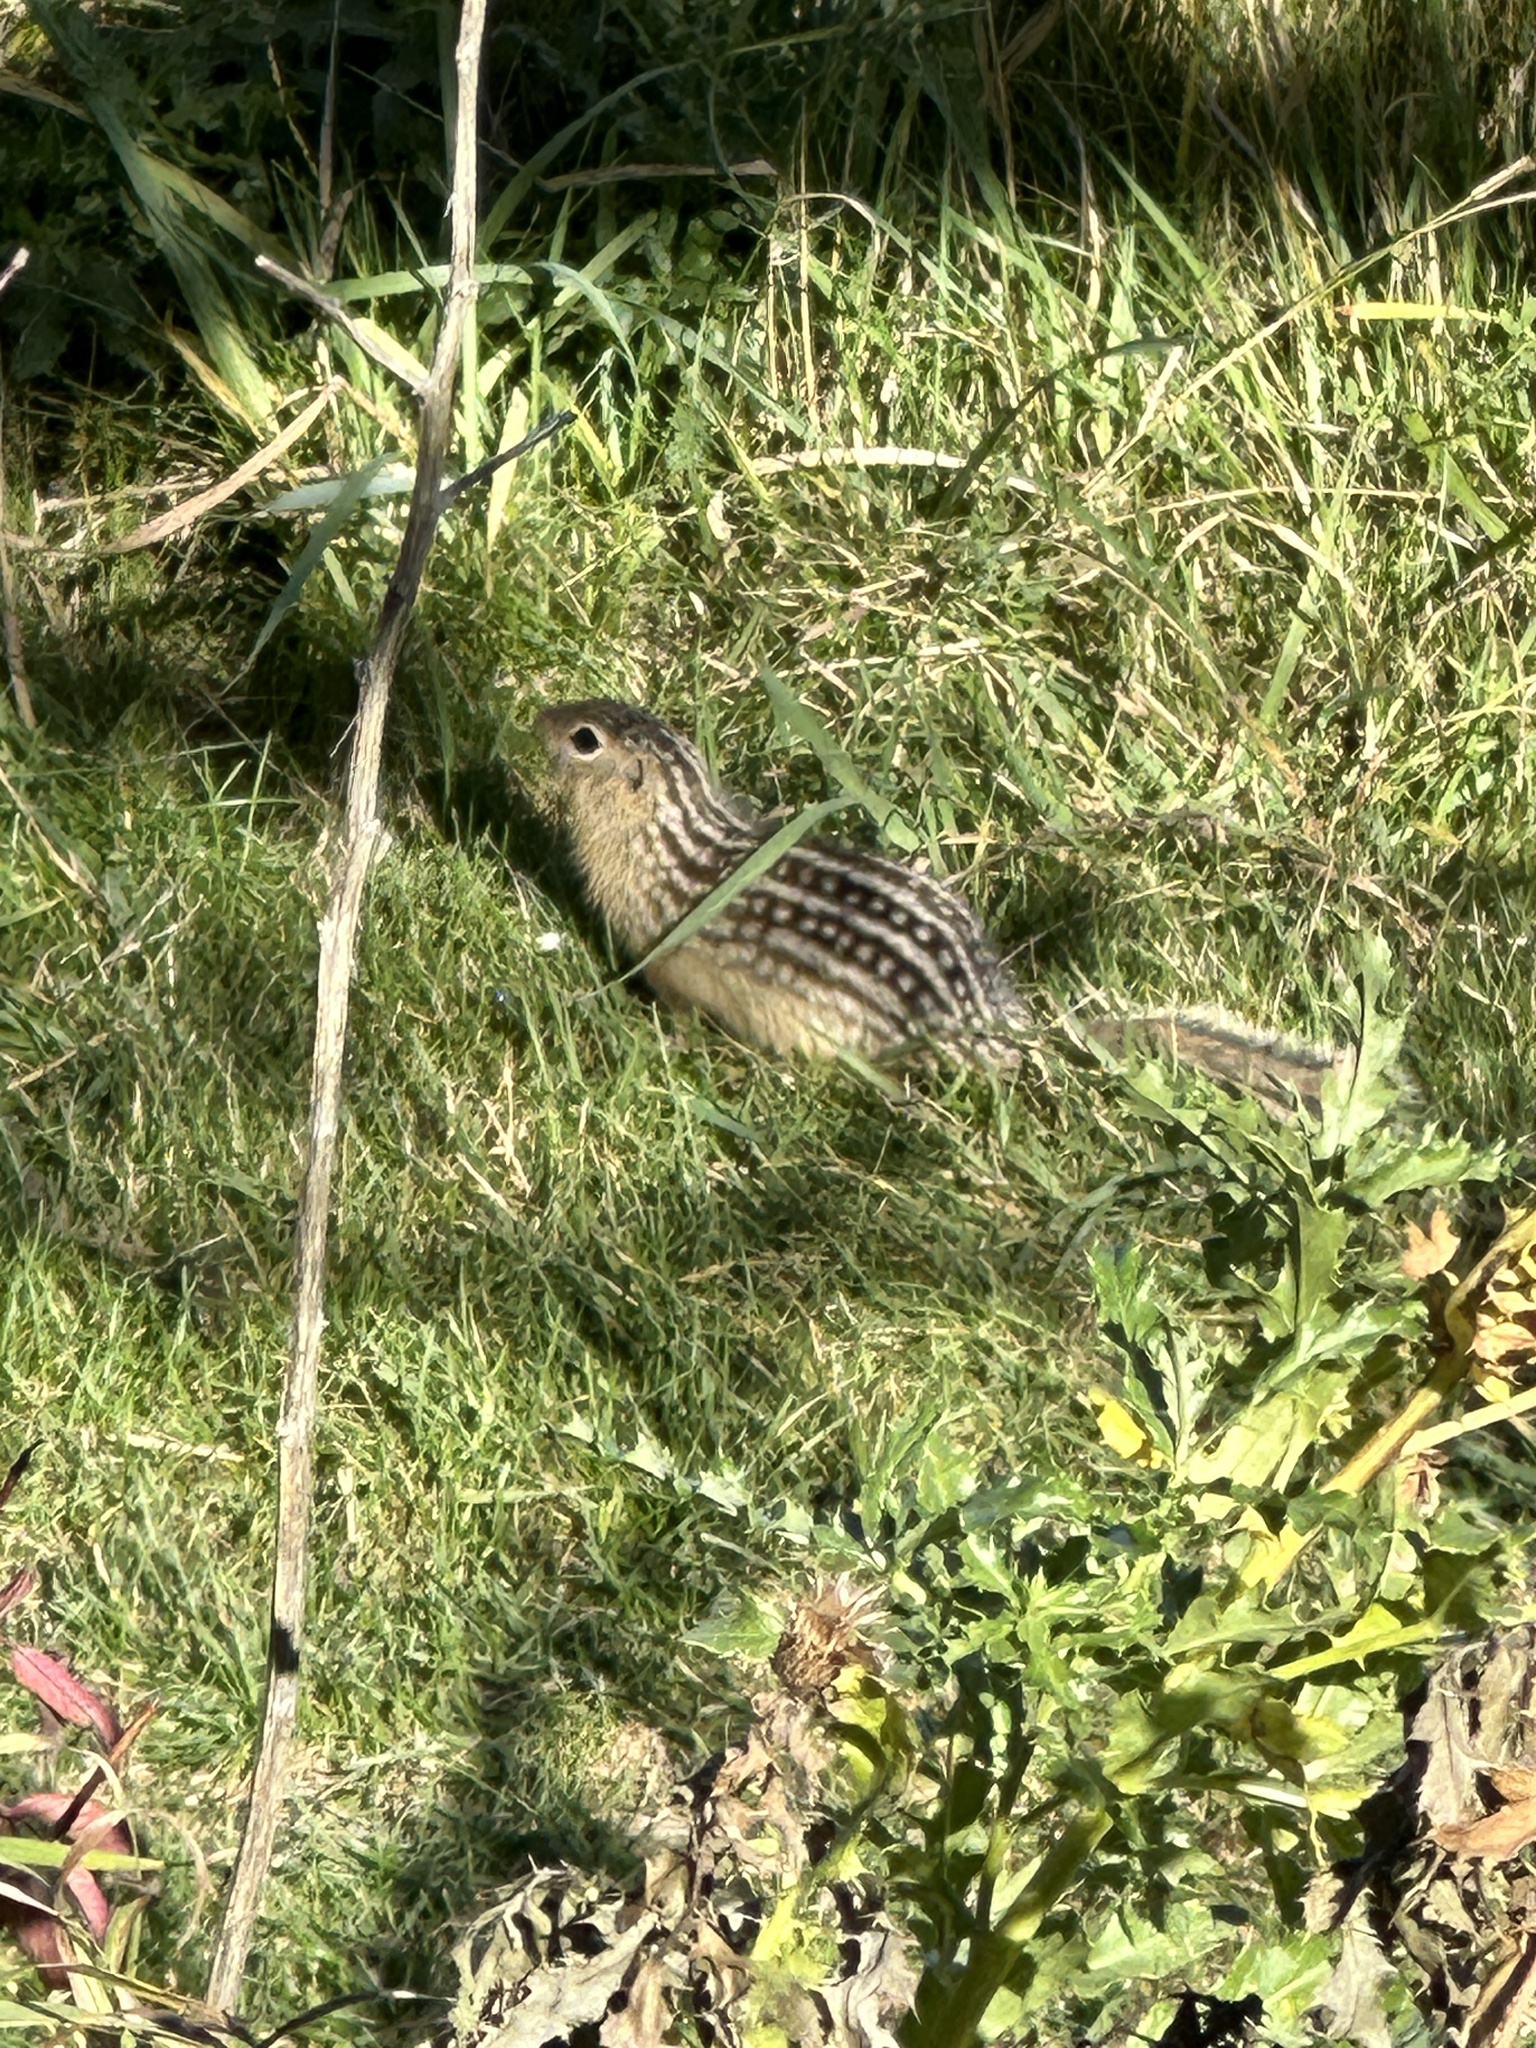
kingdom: Animalia
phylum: Chordata
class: Mammalia
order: Rodentia
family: Sciuridae
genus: Ictidomys
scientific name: Ictidomys tridecemlineatus
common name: Thirteen-lined ground squirrel
